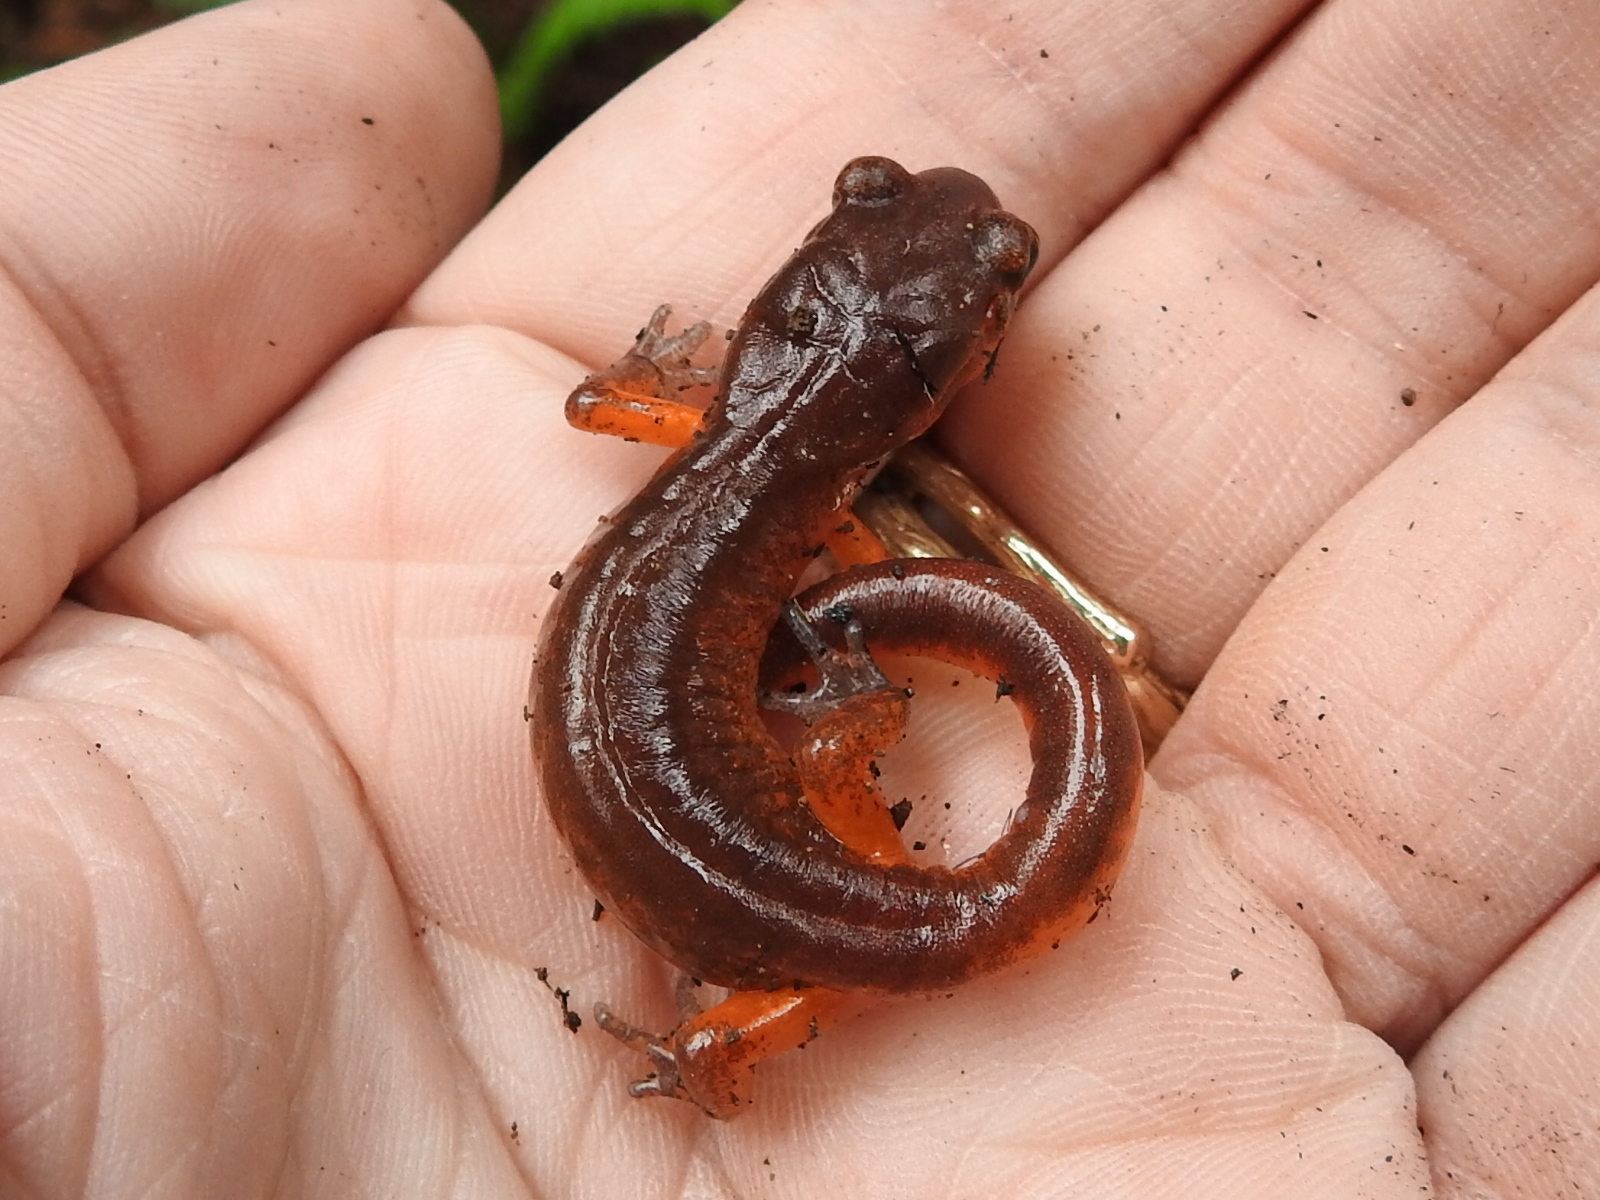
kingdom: Animalia
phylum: Chordata
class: Amphibia
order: Caudata
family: Plethodontidae
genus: Ensatina
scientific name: Ensatina eschscholtzii
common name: Ensatina
